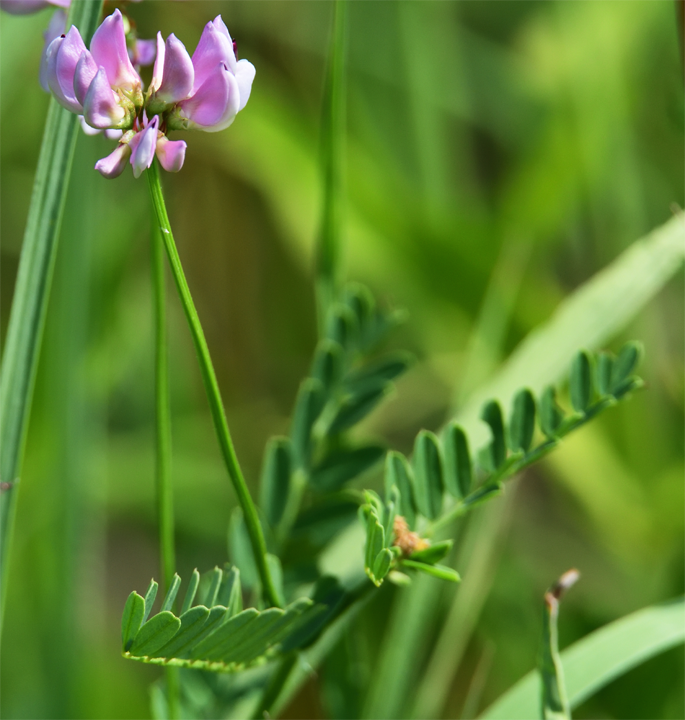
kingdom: Plantae
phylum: Tracheophyta
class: Magnoliopsida
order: Fabales
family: Fabaceae
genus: Coronilla
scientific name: Coronilla varia
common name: Crownvetch
